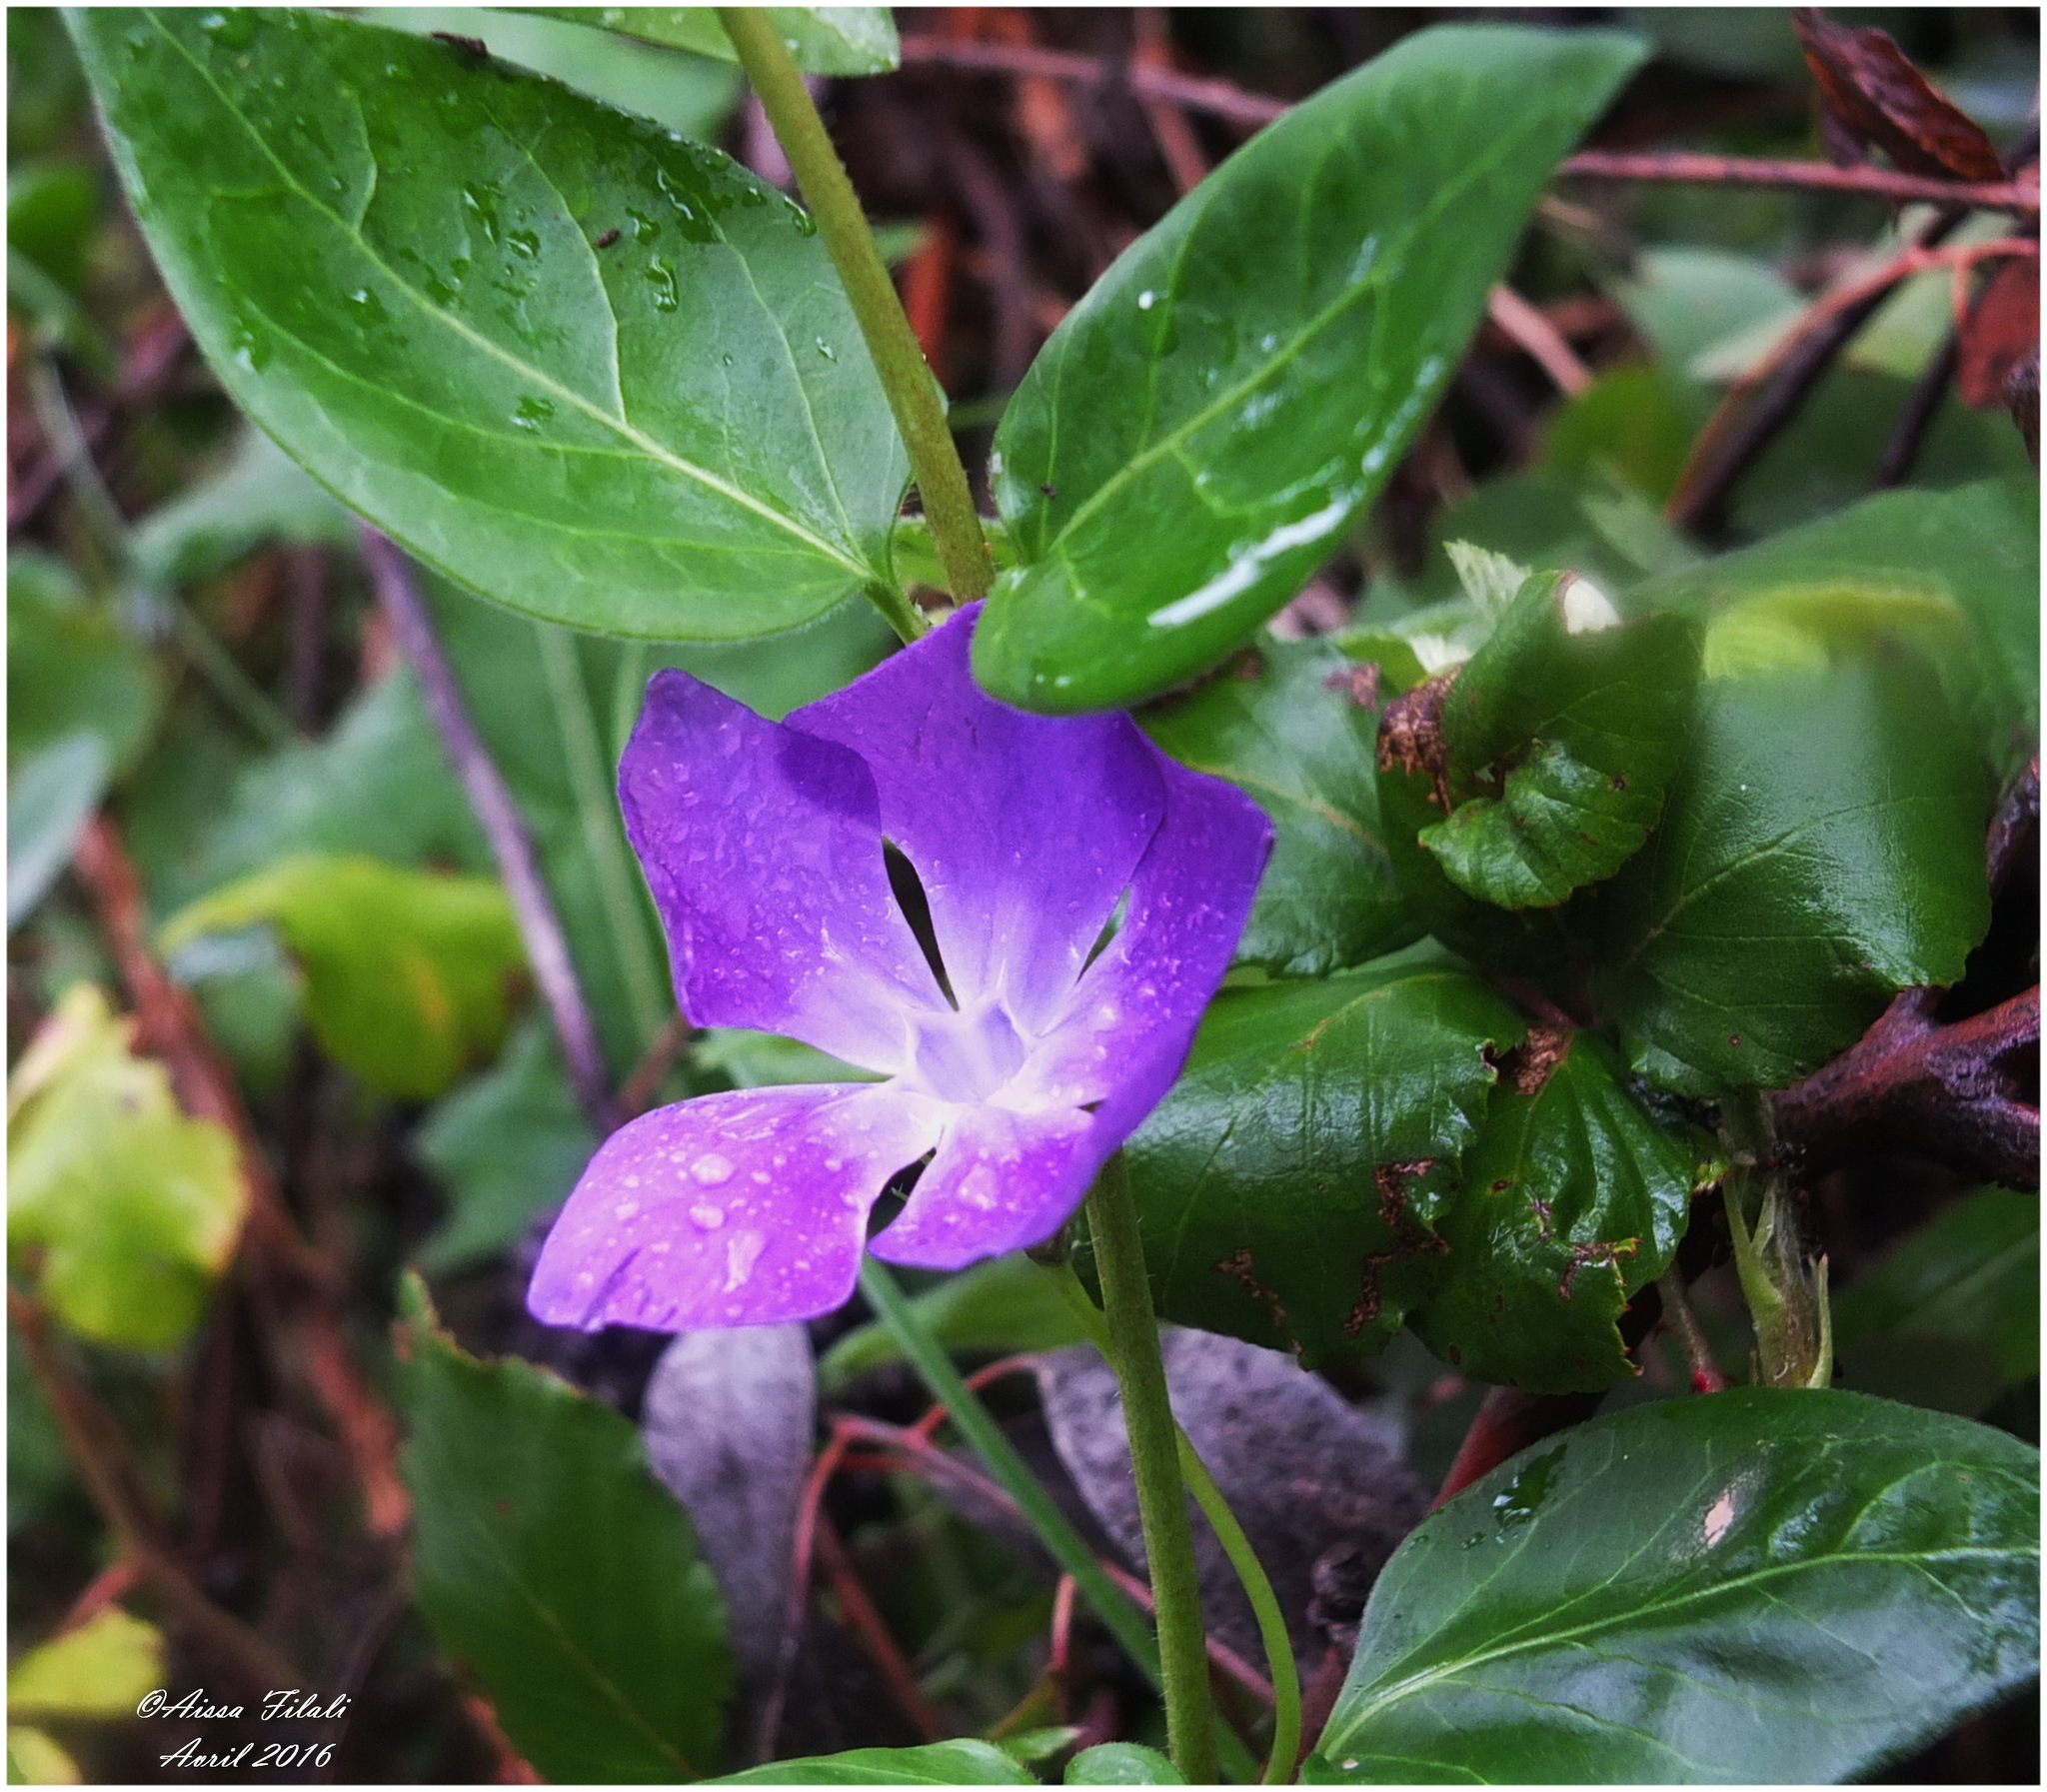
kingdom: Plantae
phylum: Tracheophyta
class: Magnoliopsida
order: Gentianales
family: Apocynaceae
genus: Vinca
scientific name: Vinca major
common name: Greater periwinkle
